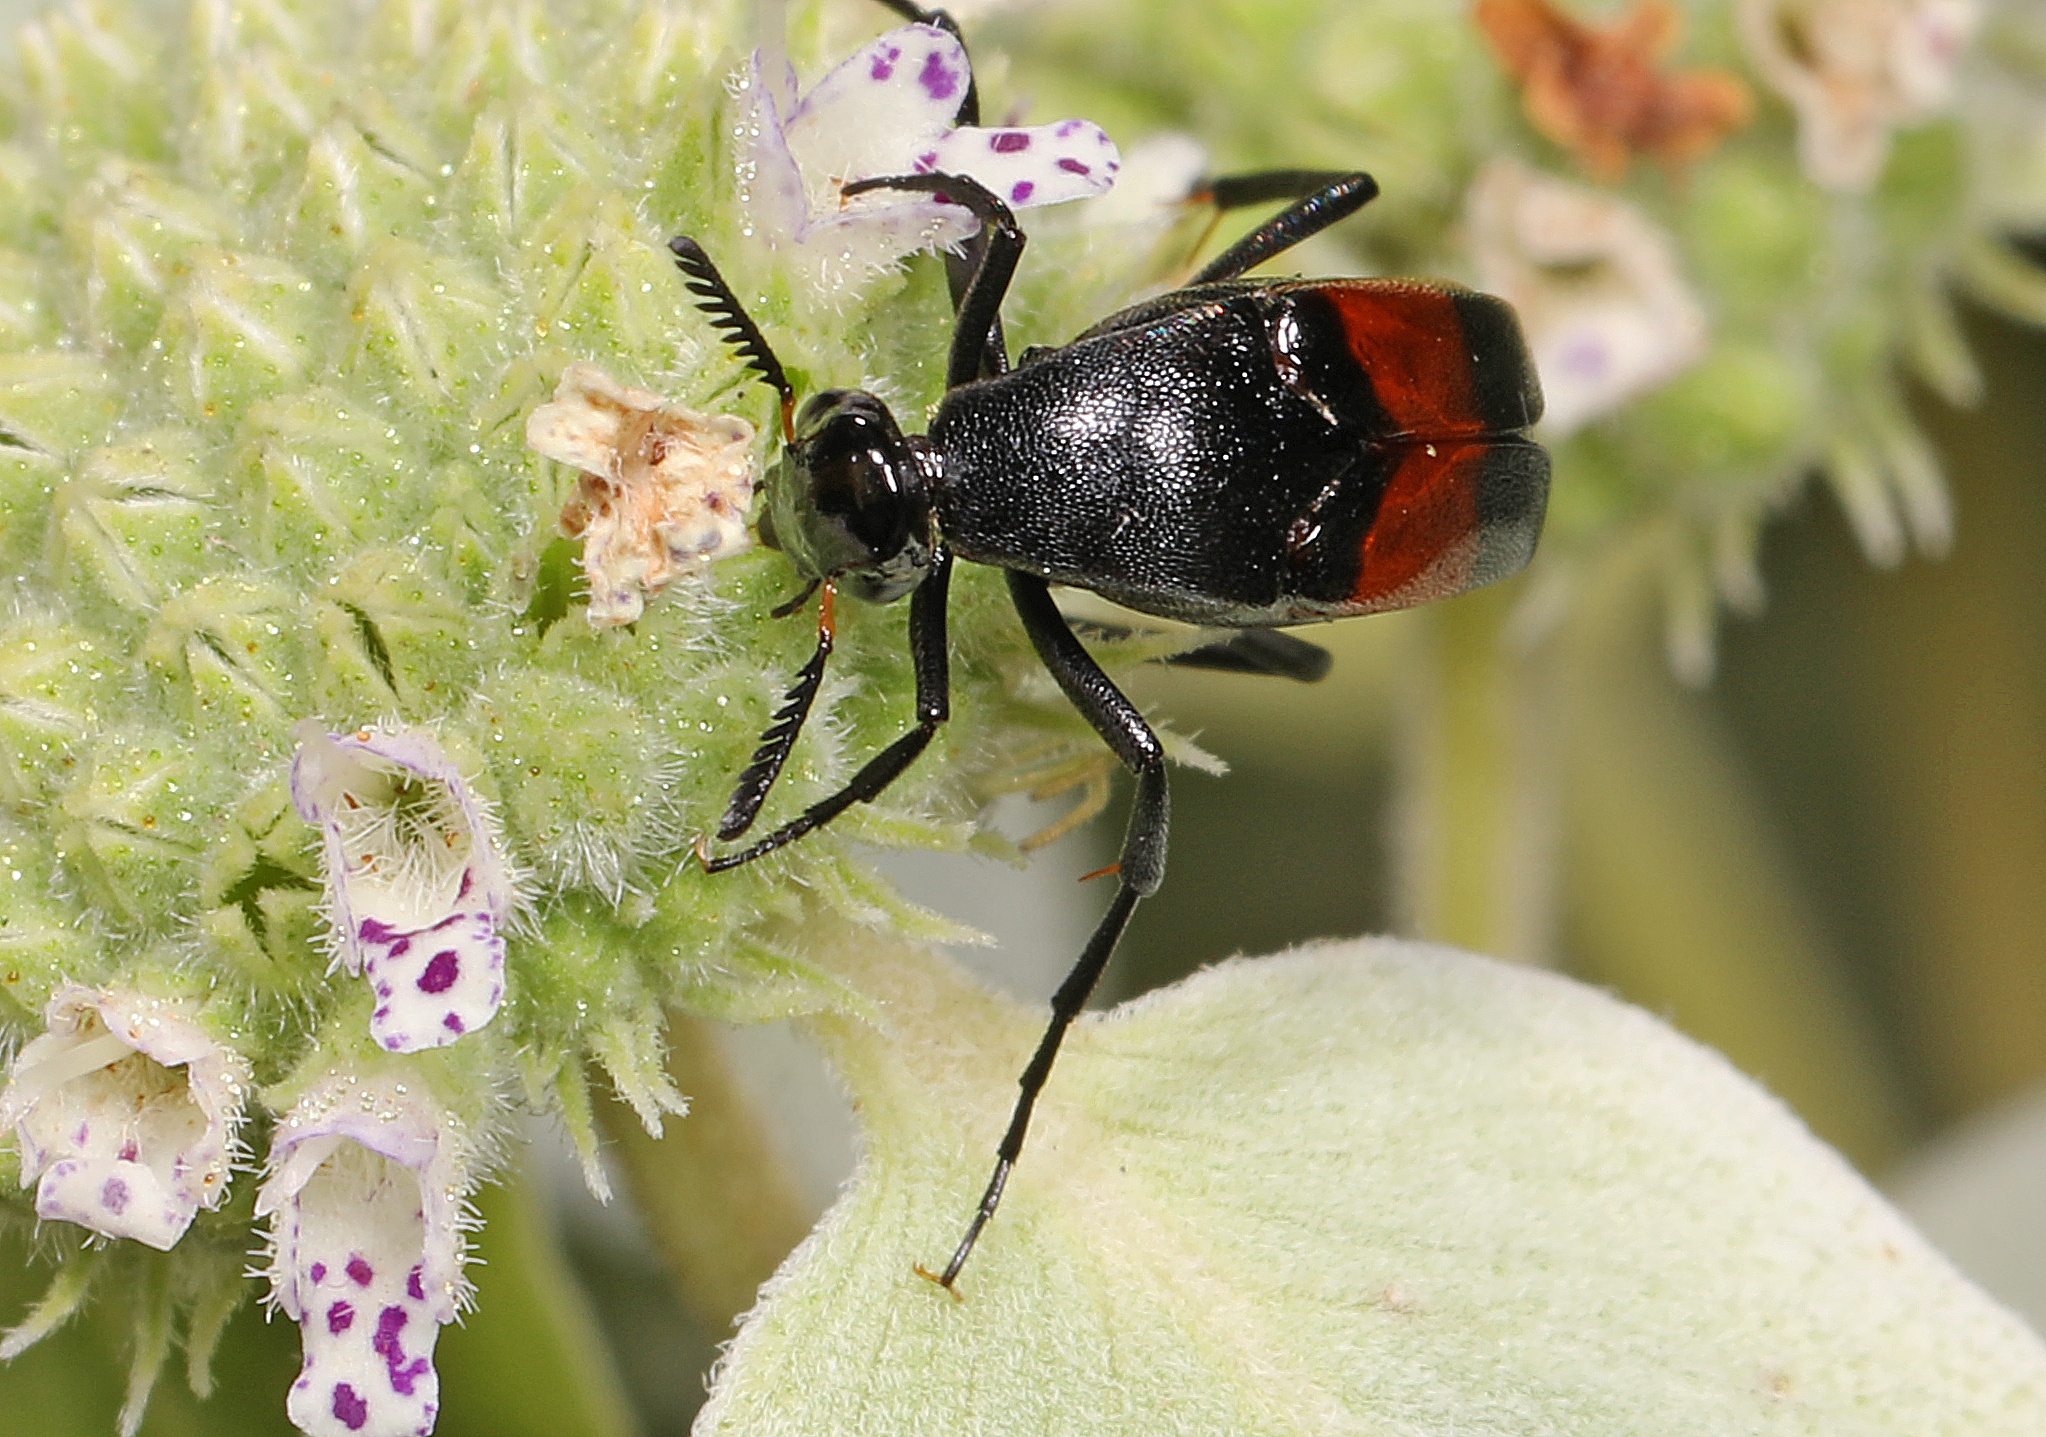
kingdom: Animalia
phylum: Arthropoda
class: Insecta
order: Coleoptera
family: Ripiphoridae
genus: Macrosiagon
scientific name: Macrosiagon cruentum
